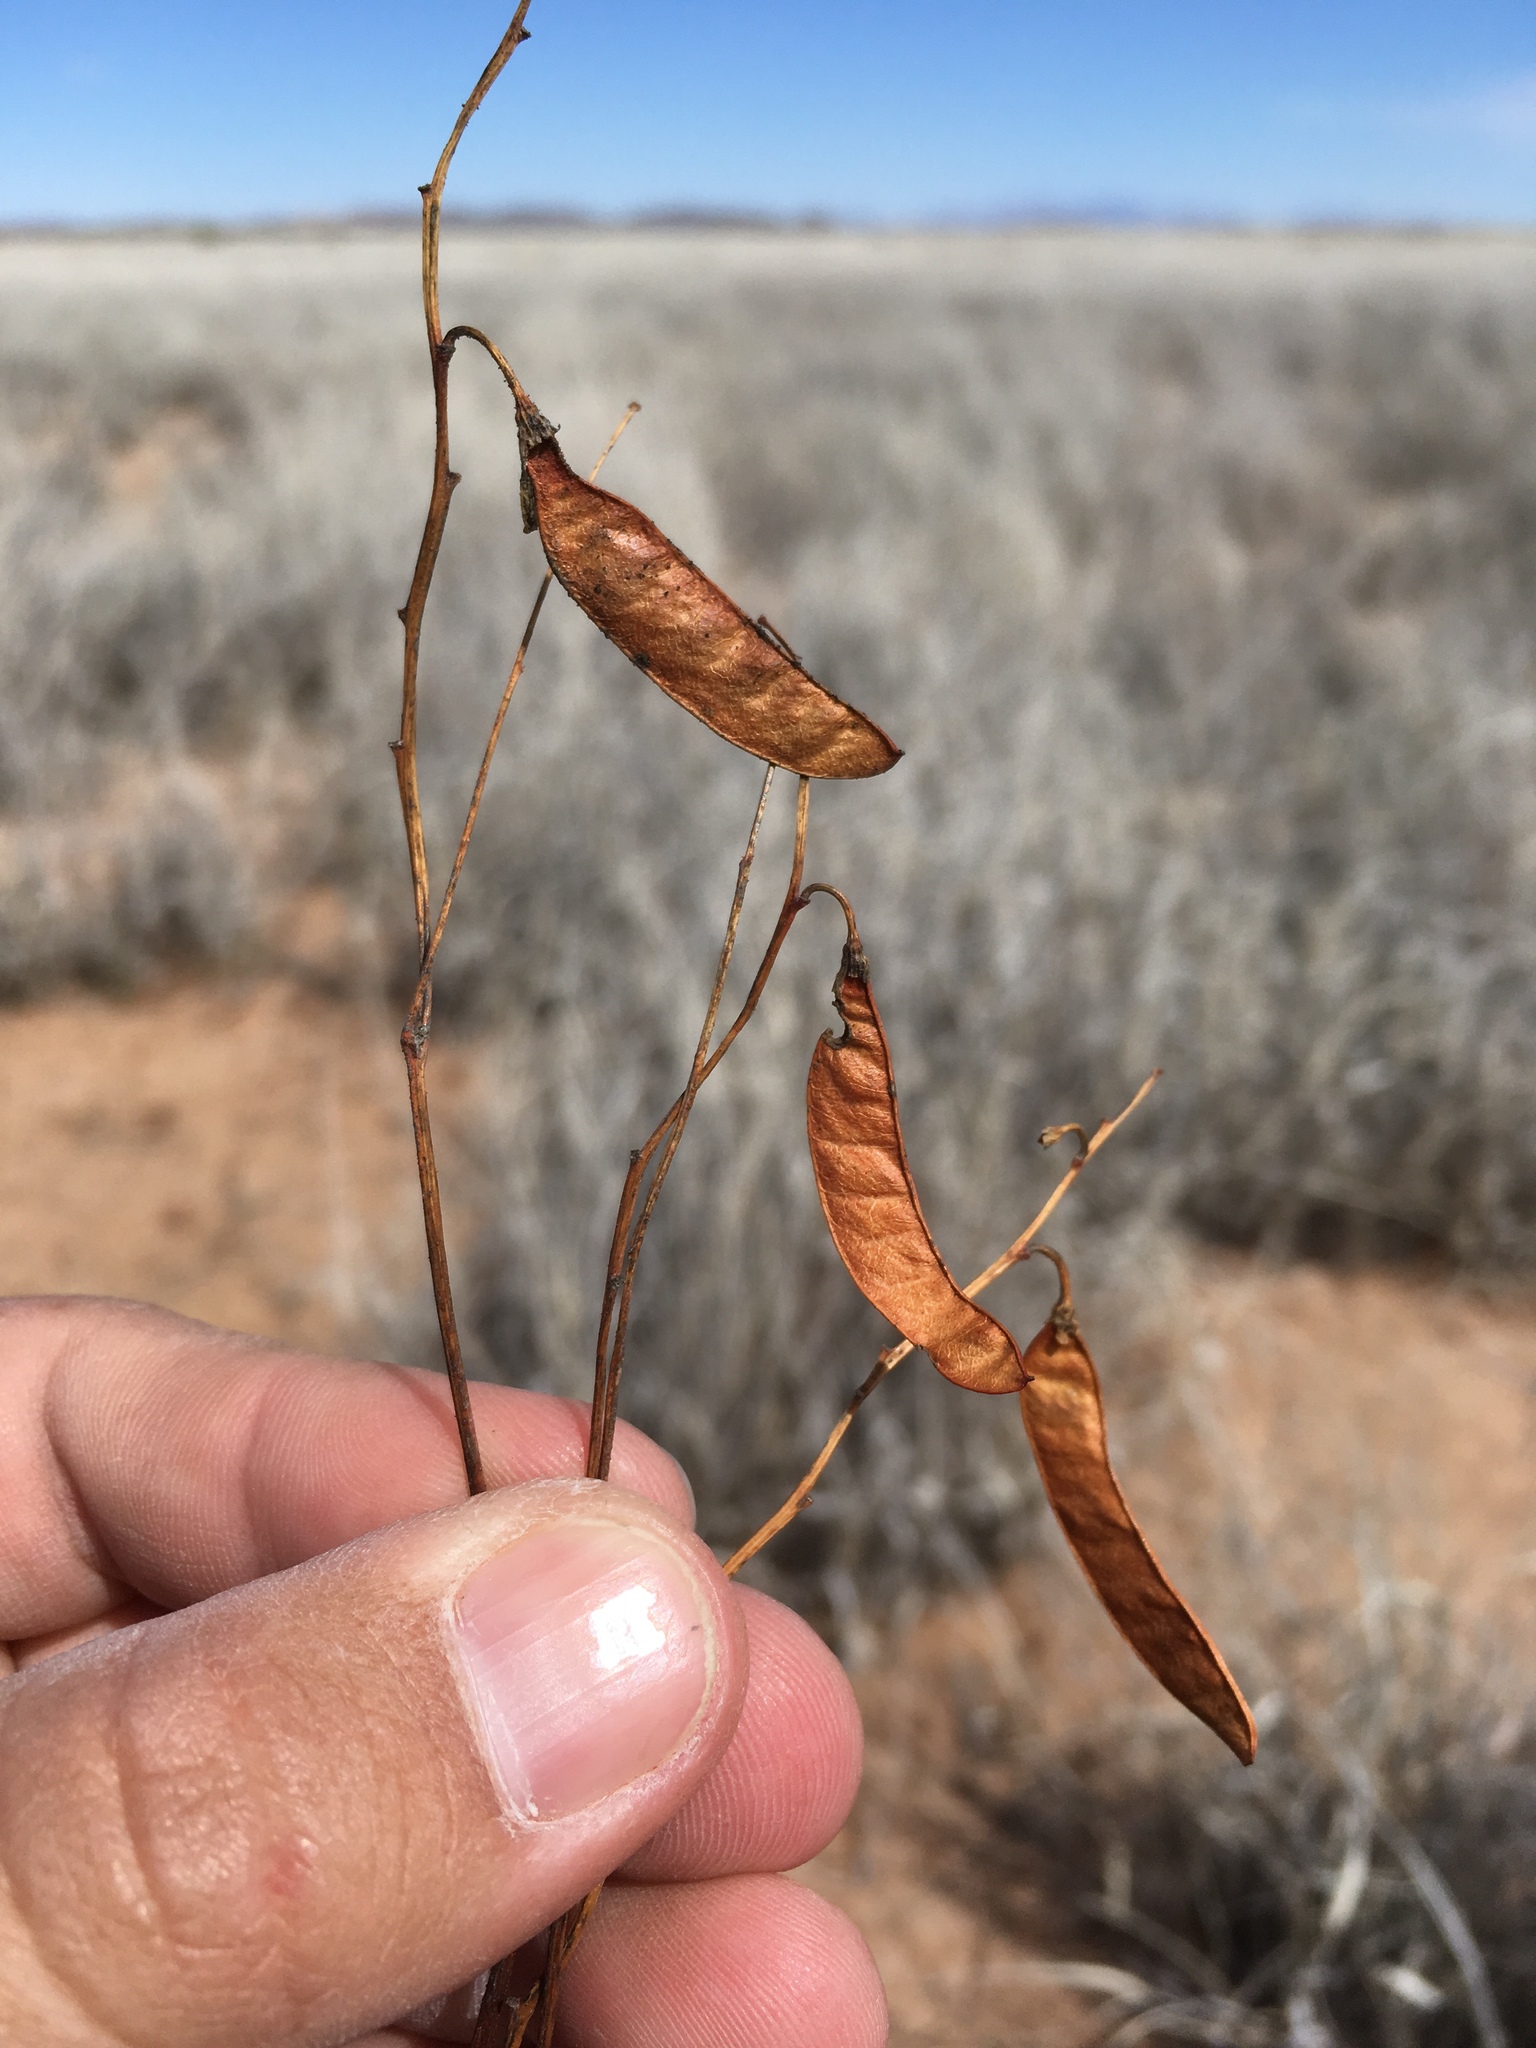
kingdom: Plantae
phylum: Tracheophyta
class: Magnoliopsida
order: Fabales
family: Fabaceae
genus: Hoffmannseggia
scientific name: Hoffmannseggia glauca
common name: Pignut
